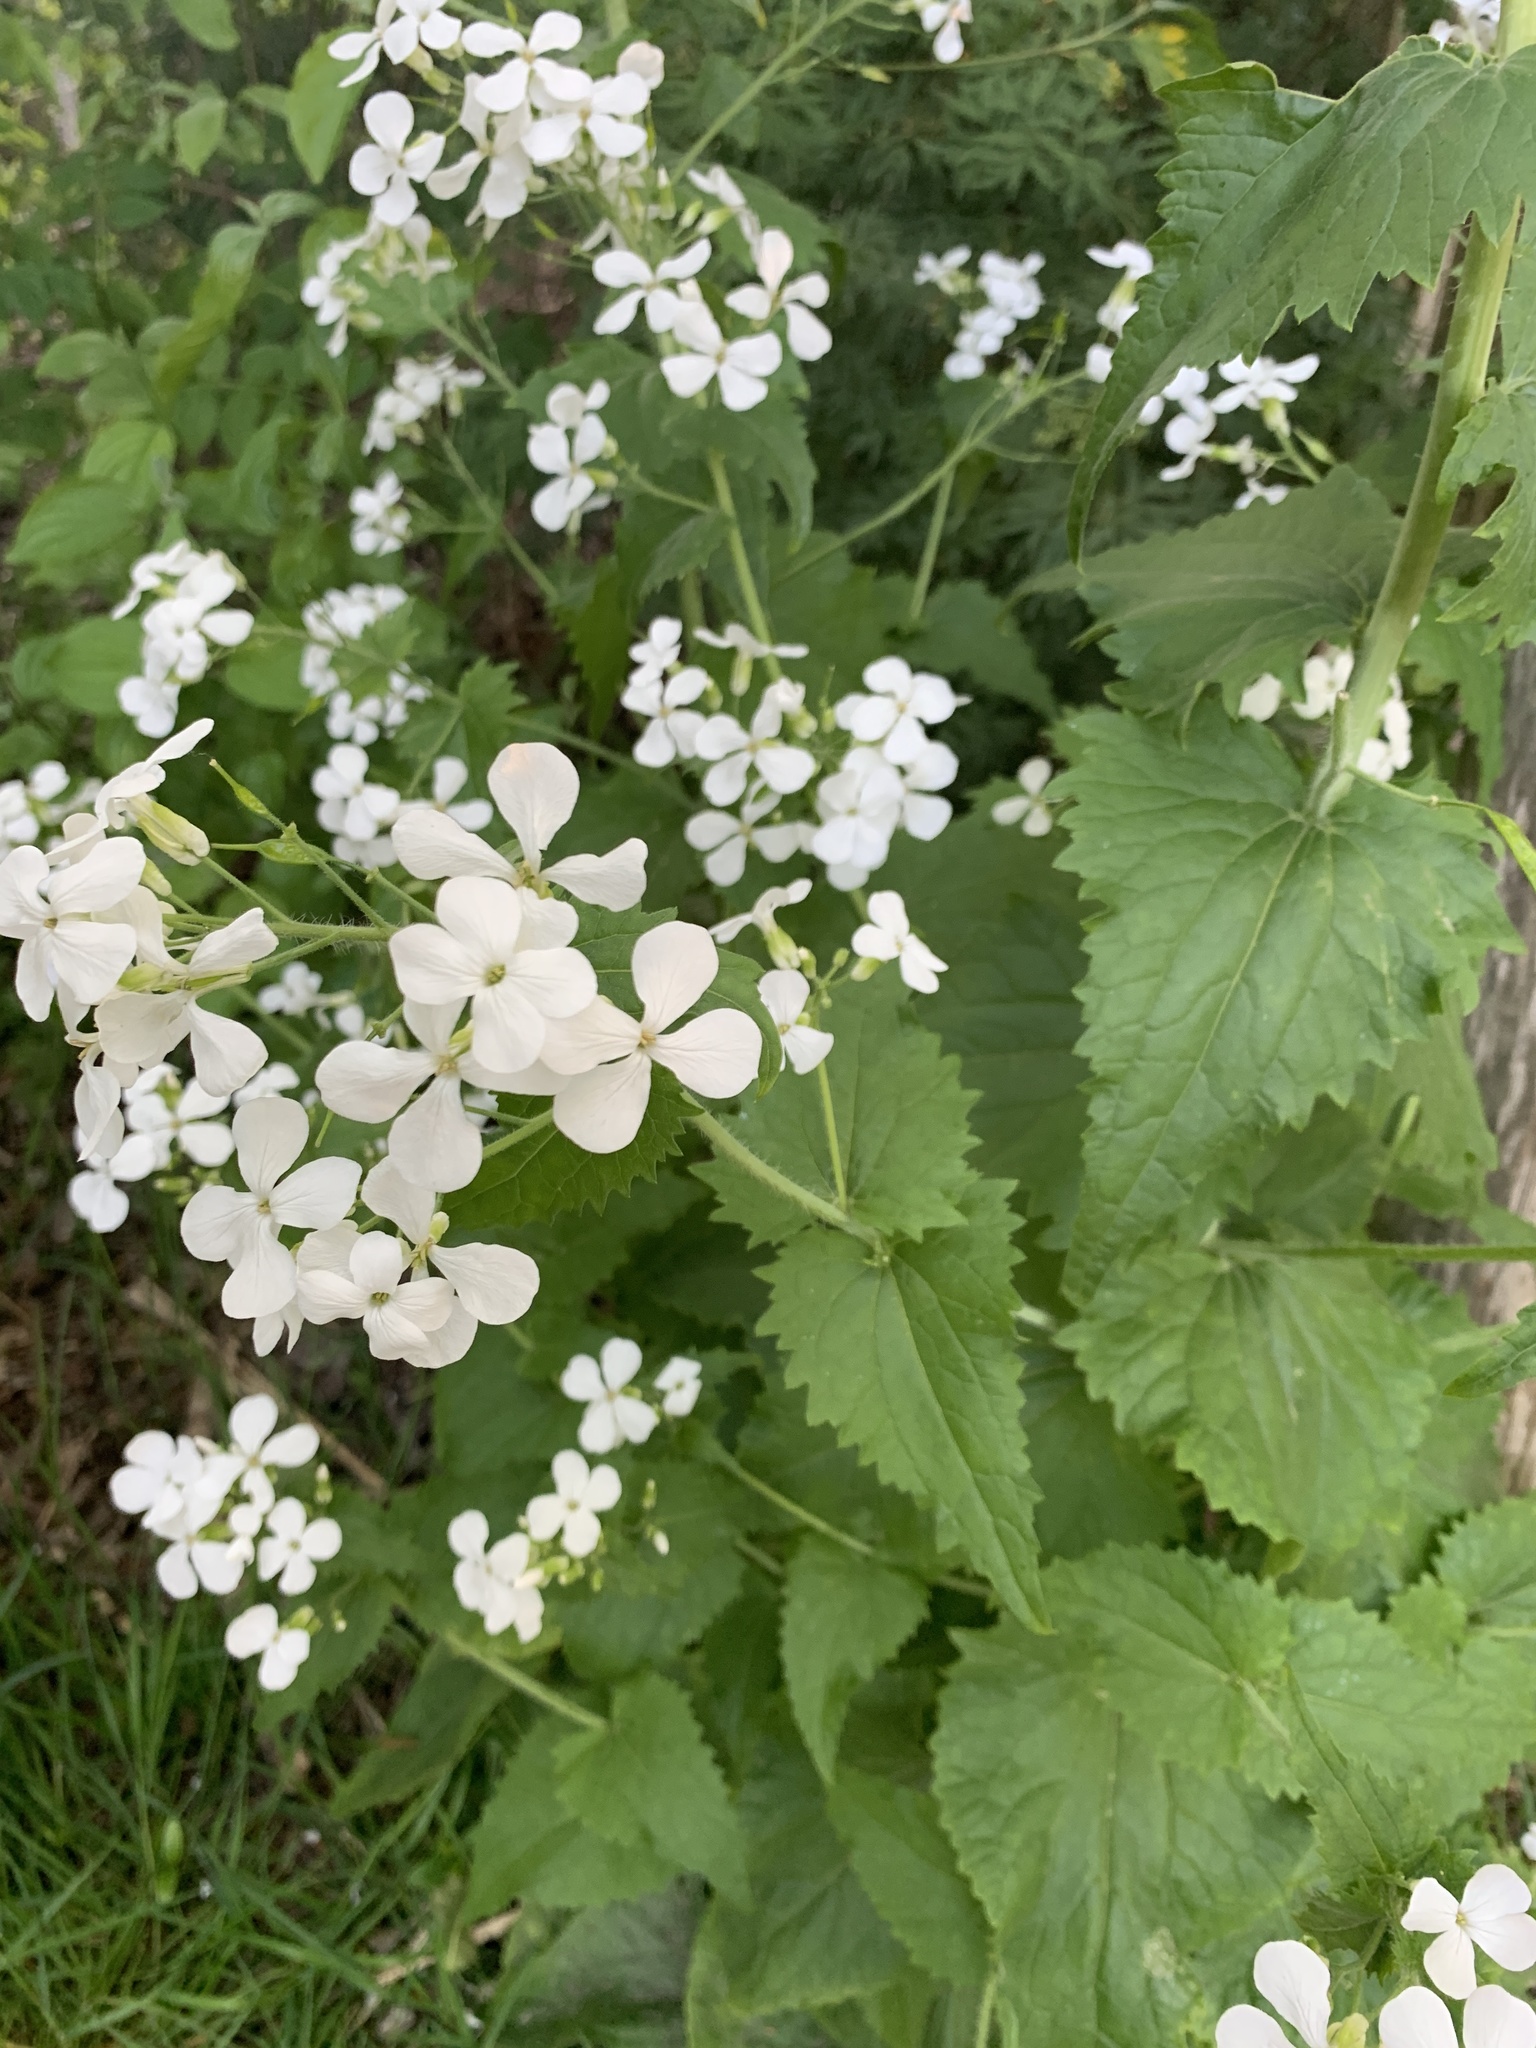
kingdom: Plantae
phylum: Tracheophyta
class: Magnoliopsida
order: Brassicales
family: Brassicaceae
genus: Lunaria
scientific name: Lunaria annua
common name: Honesty
